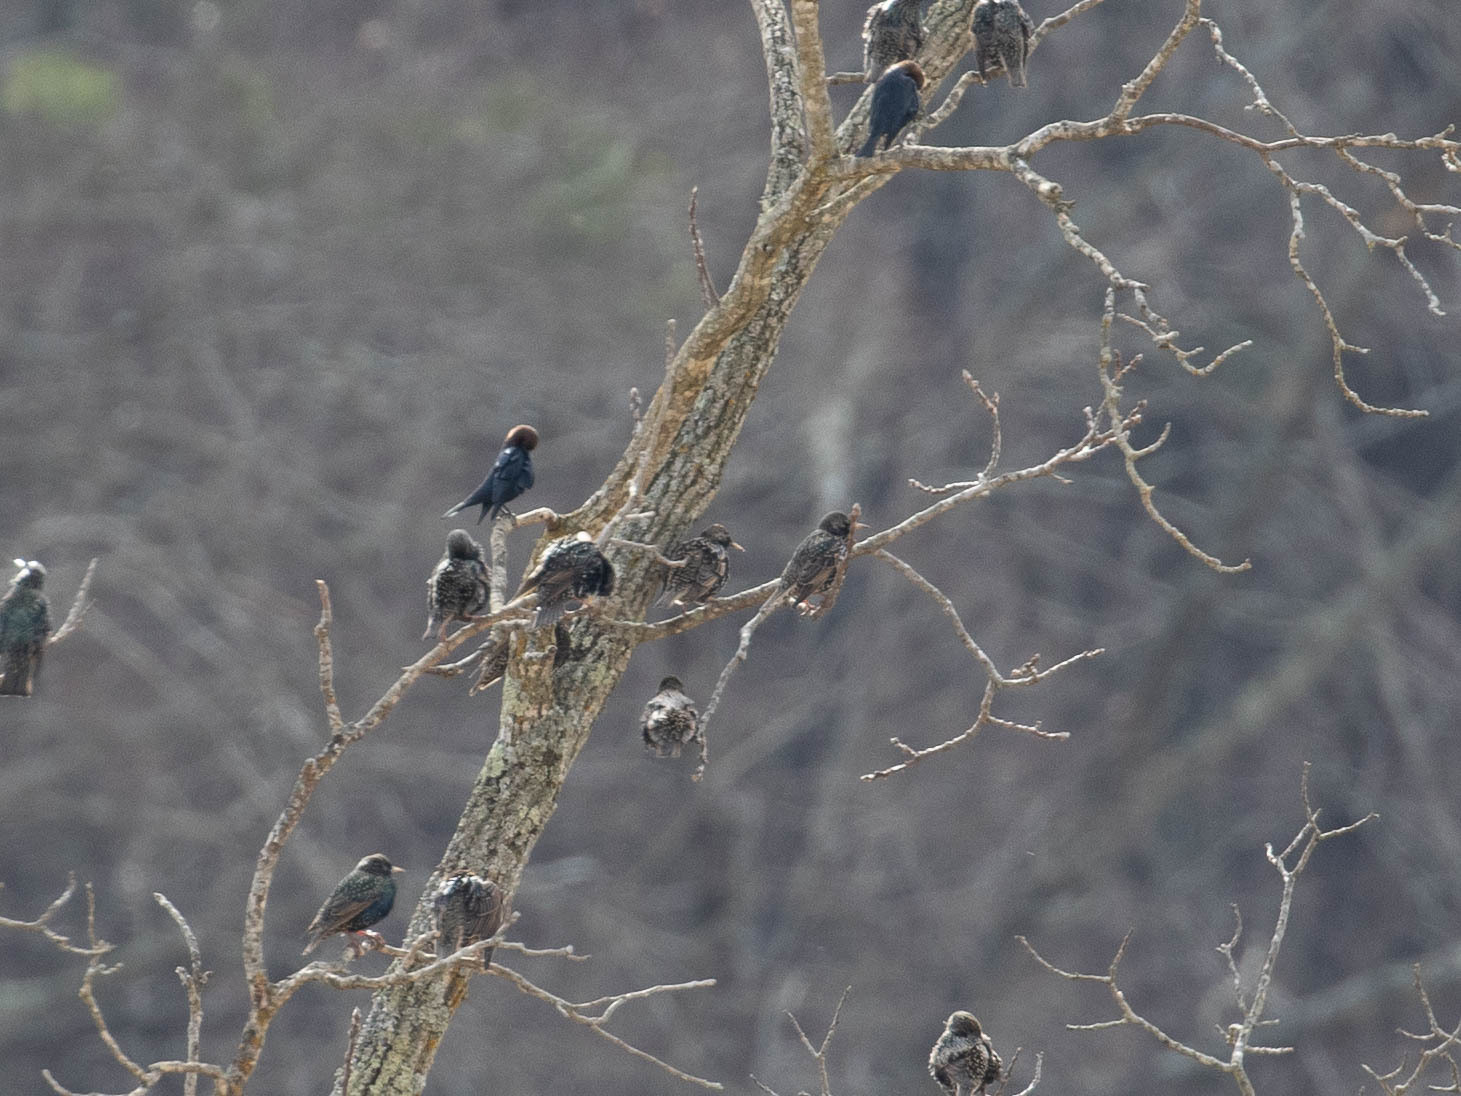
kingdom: Animalia
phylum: Chordata
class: Aves
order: Passeriformes
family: Icteridae
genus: Molothrus
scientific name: Molothrus ater
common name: Brown-headed cowbird
